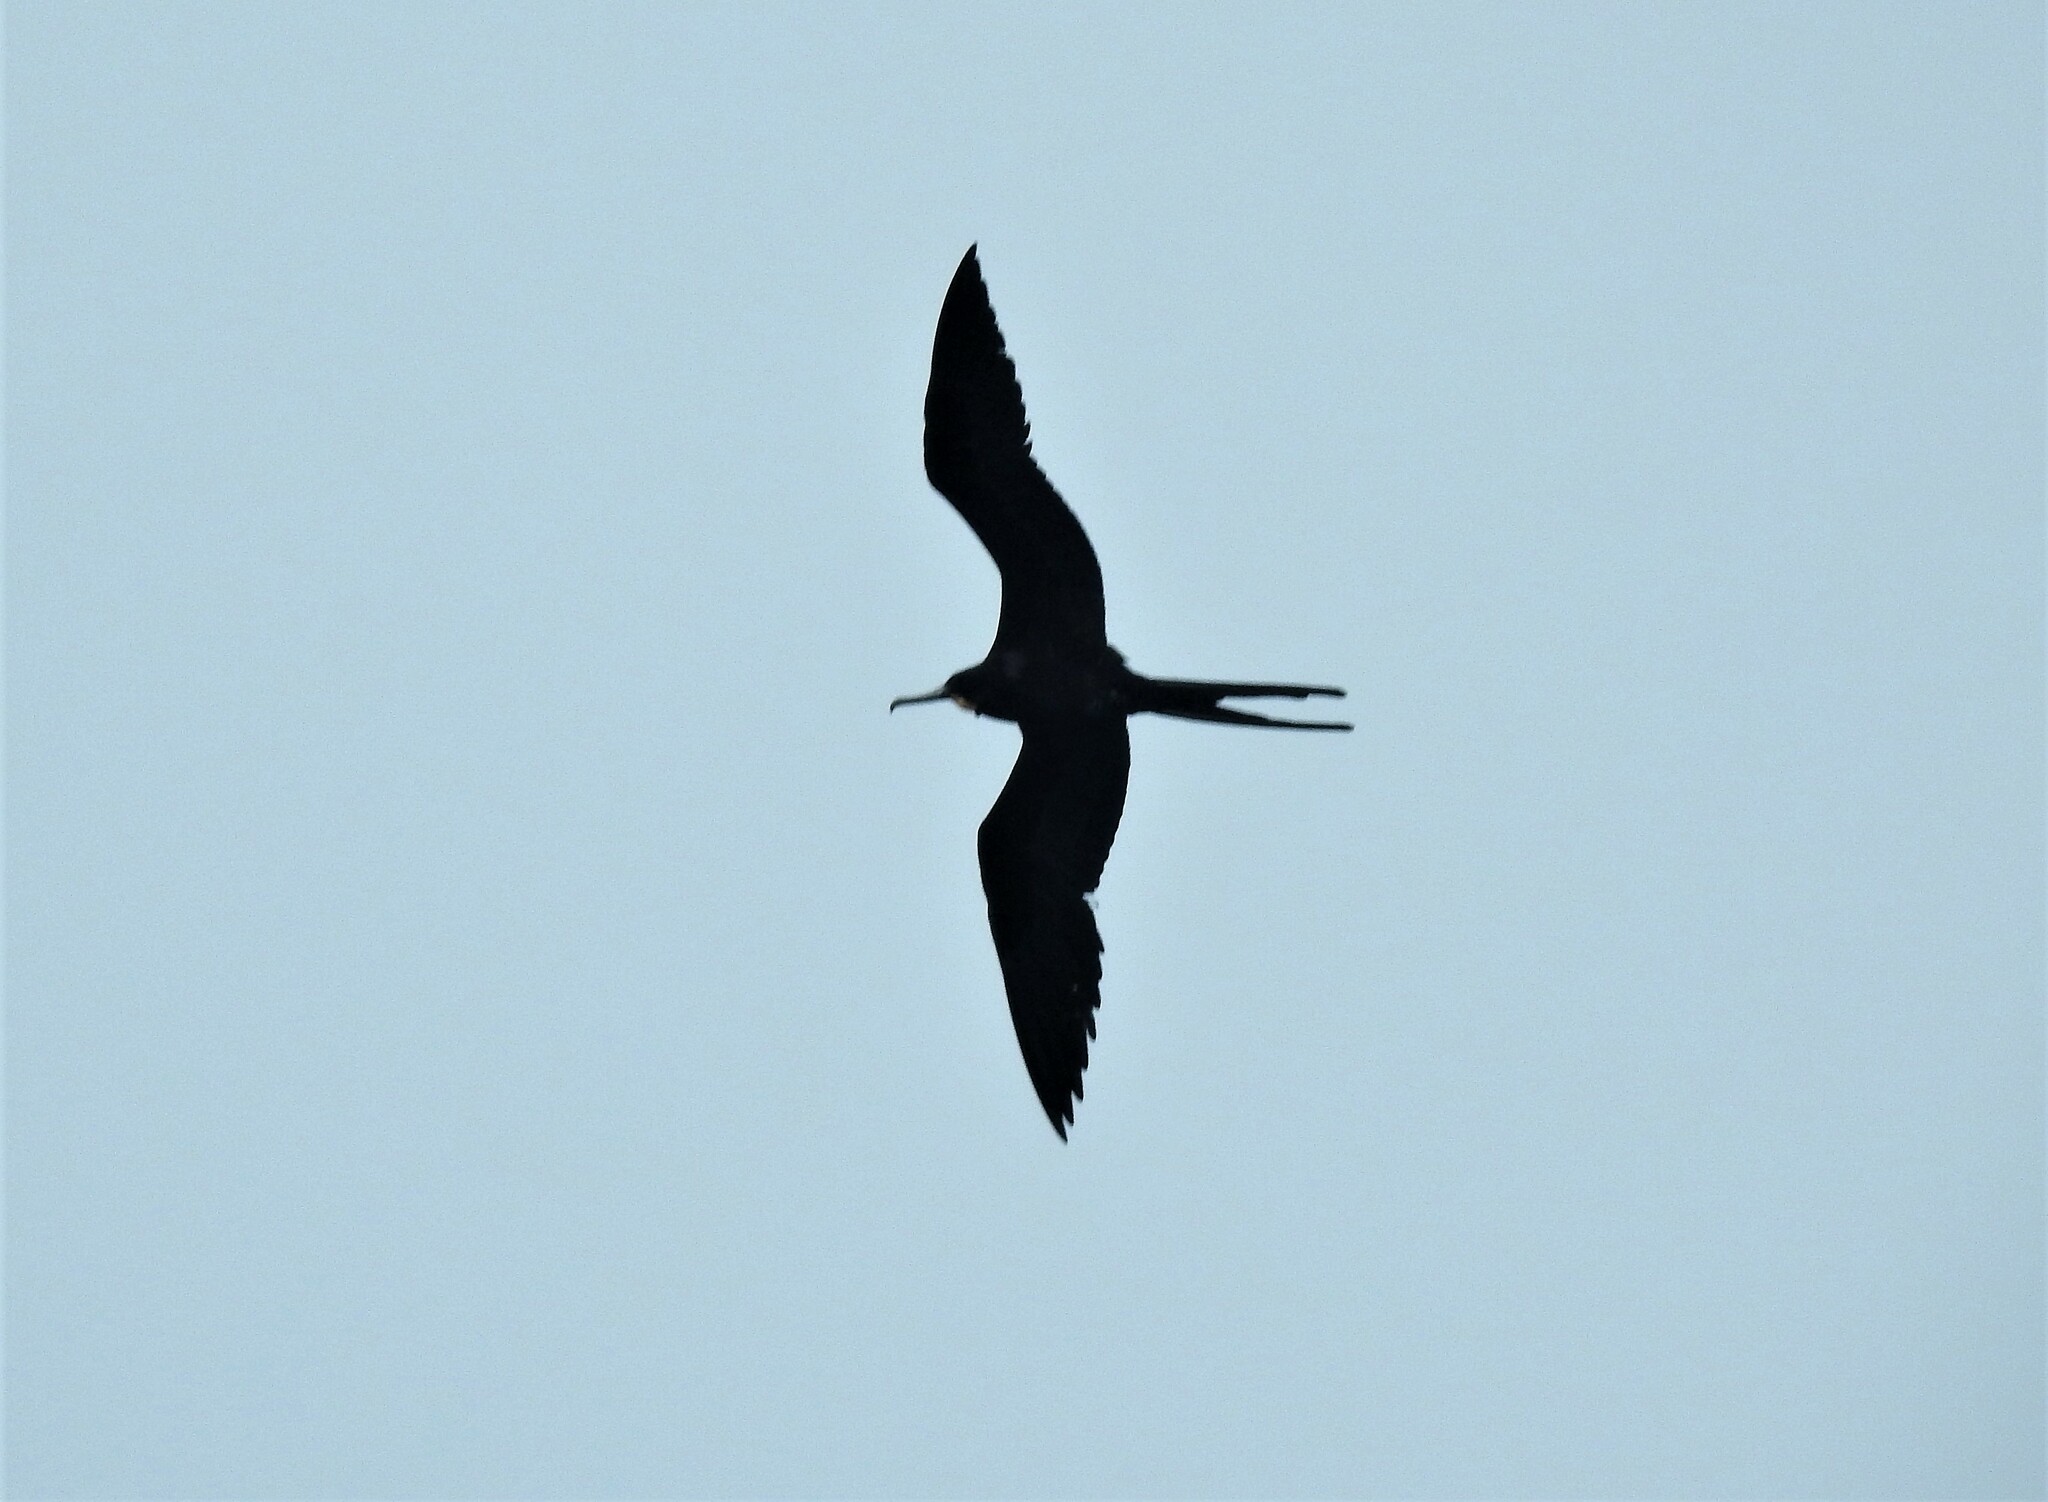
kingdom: Animalia
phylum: Chordata
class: Aves
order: Suliformes
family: Fregatidae
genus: Fregata
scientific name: Fregata magnificens
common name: Magnificent frigatebird
